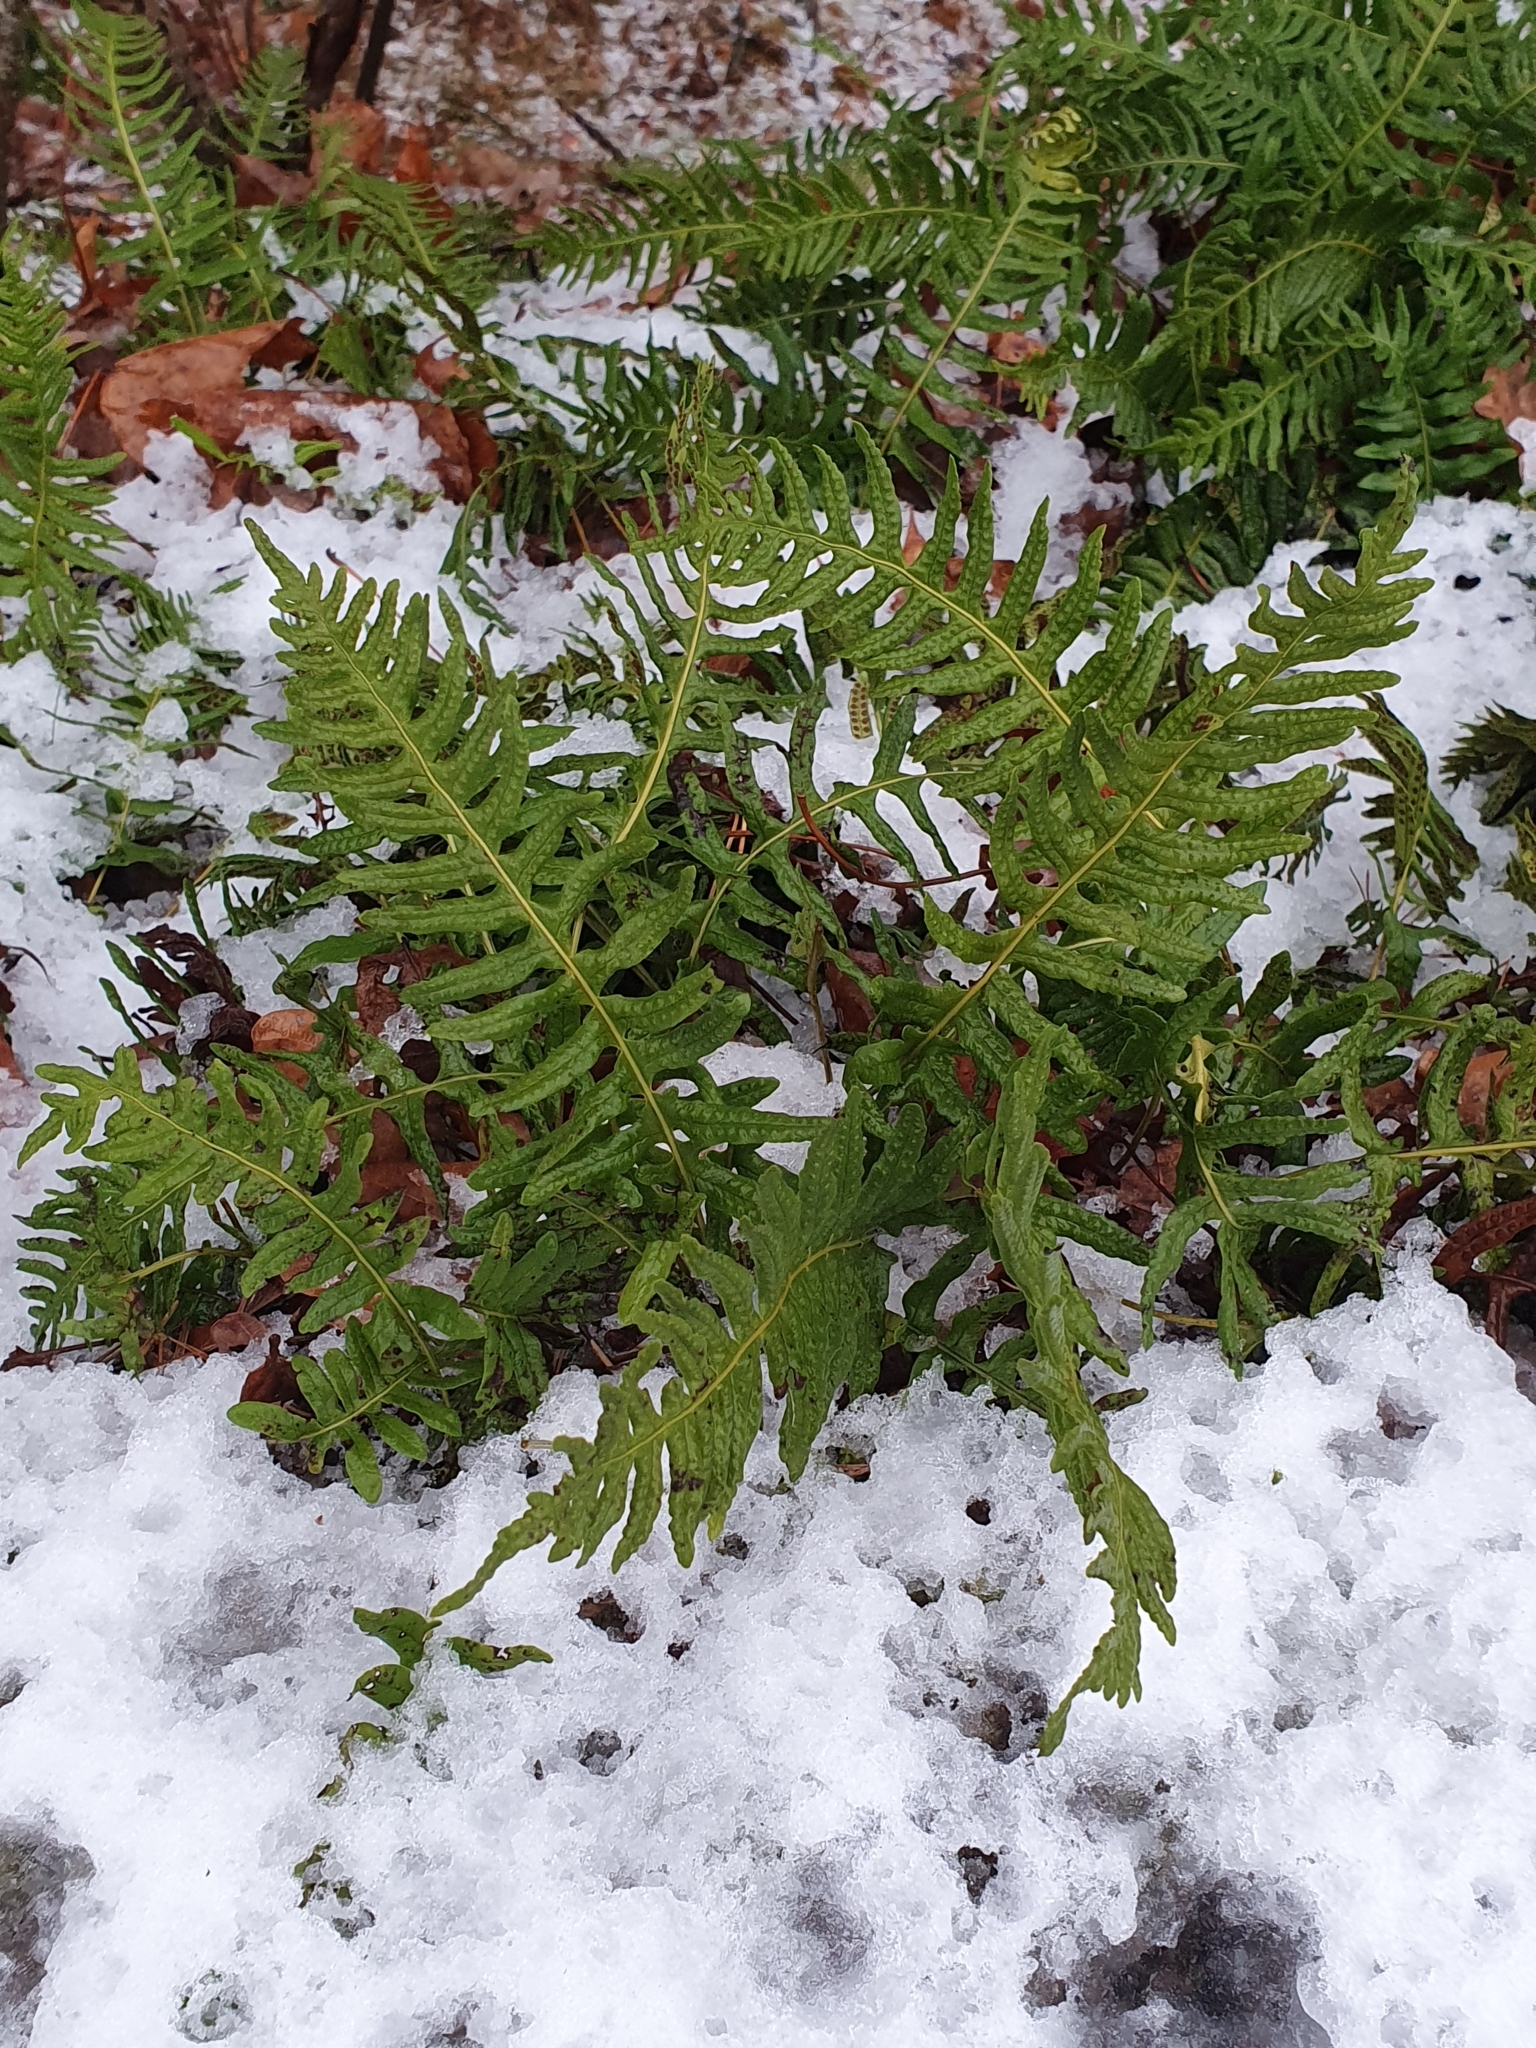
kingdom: Plantae
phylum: Tracheophyta
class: Polypodiopsida
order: Polypodiales
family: Polypodiaceae
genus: Polypodium
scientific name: Polypodium vulgare
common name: Common polypody
